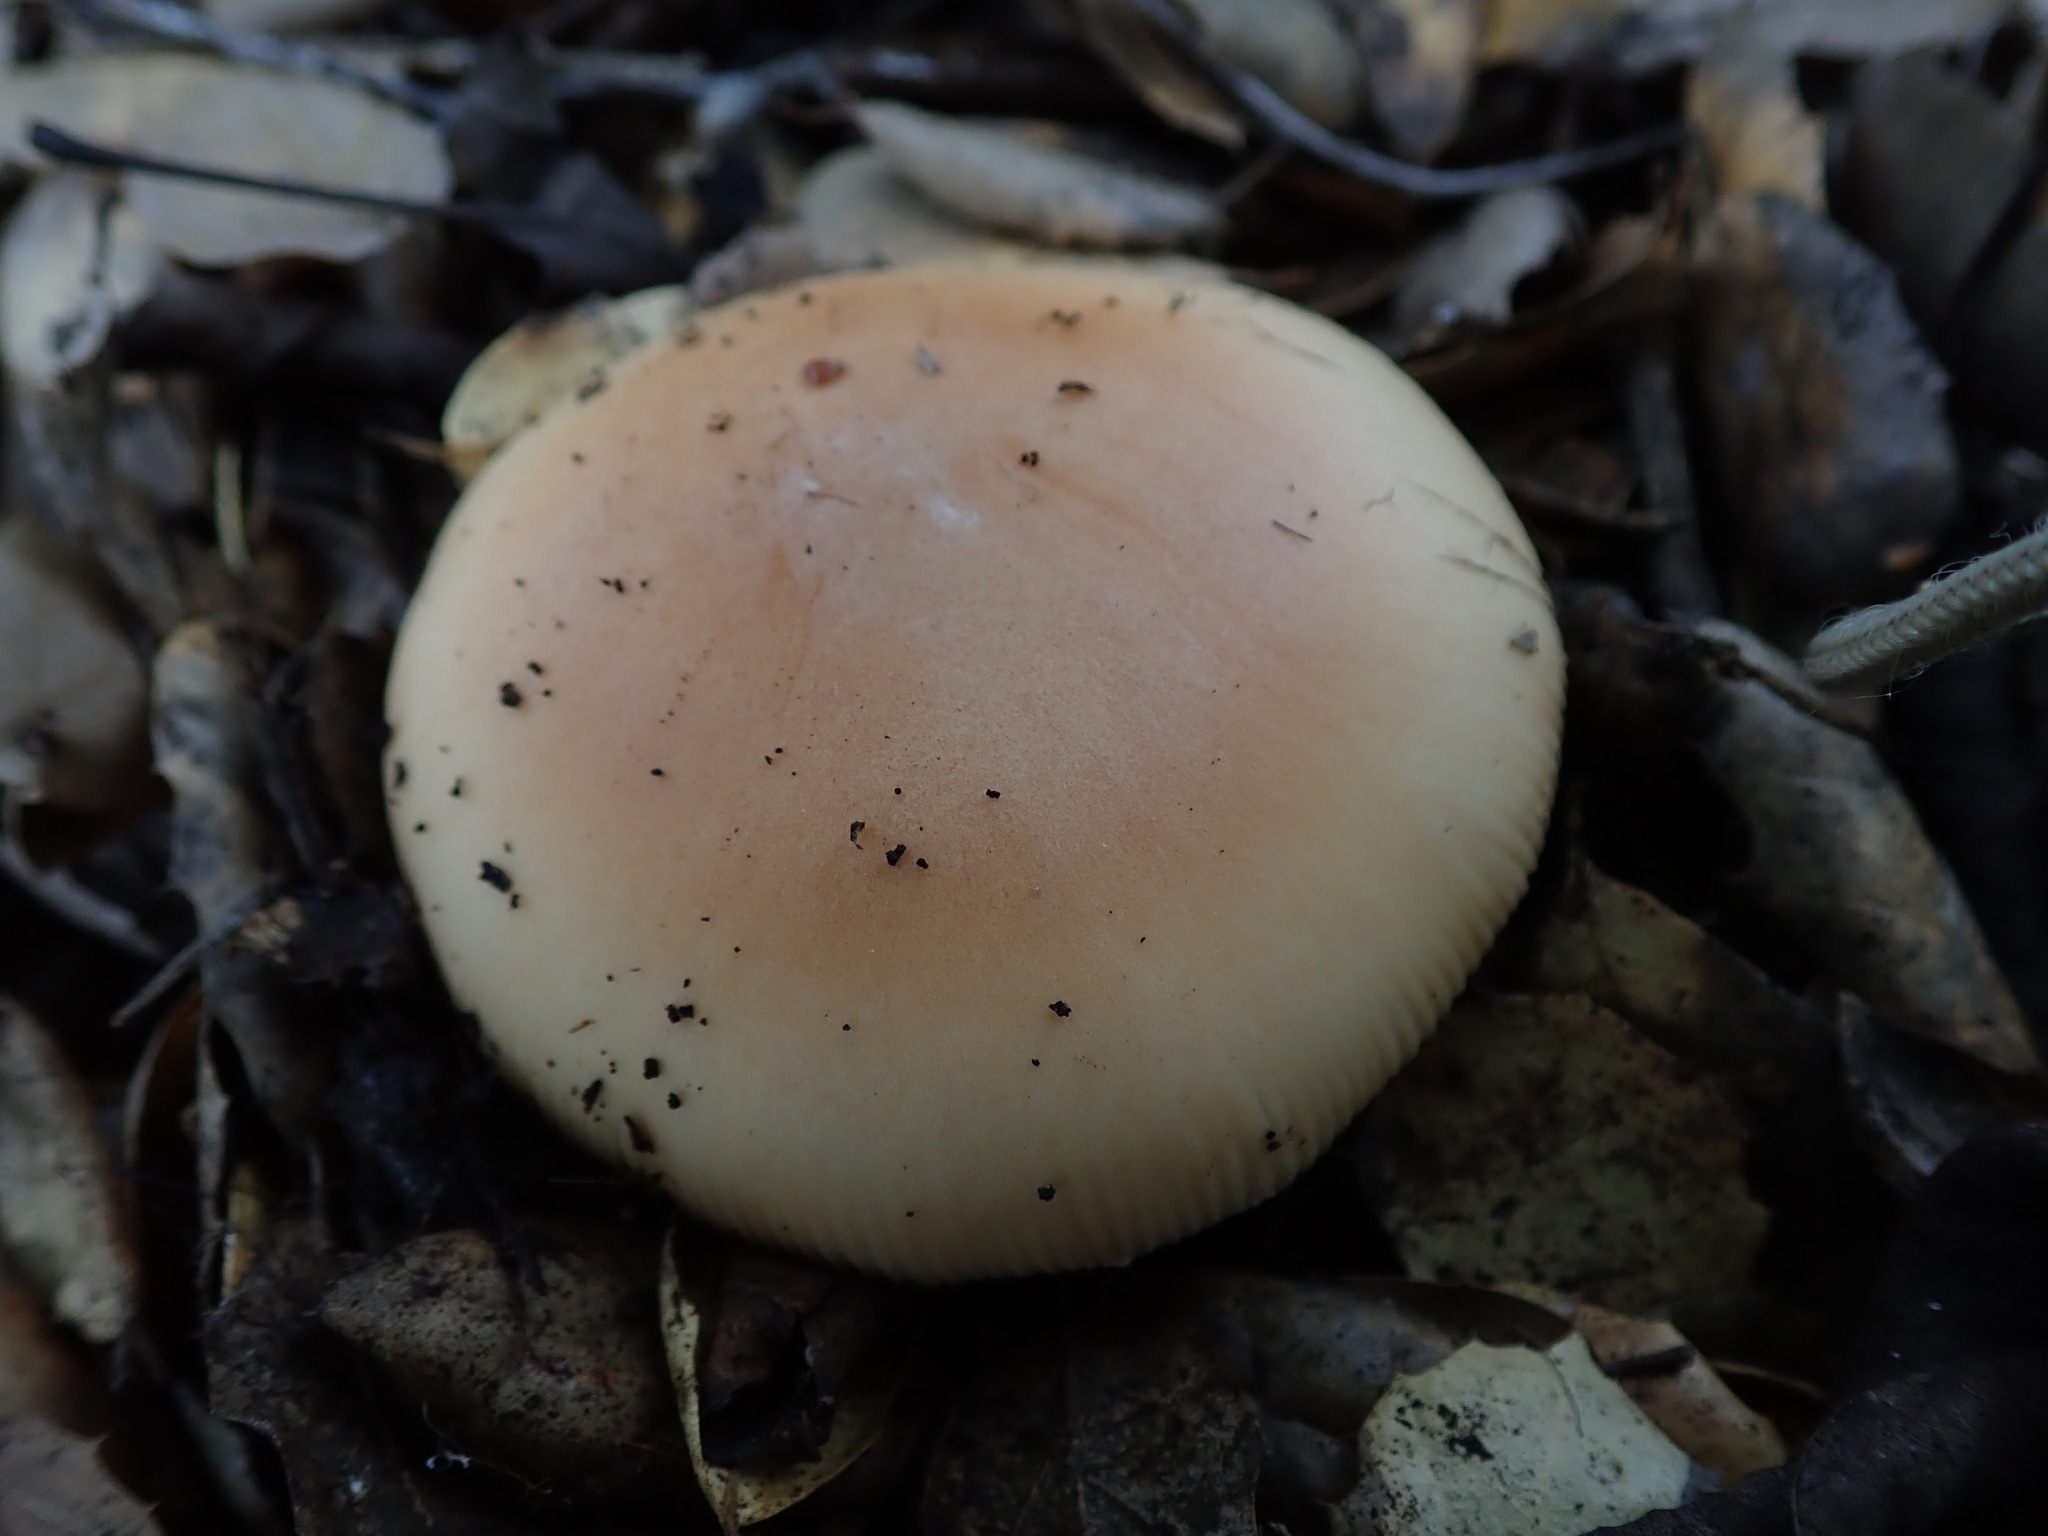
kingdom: Fungi
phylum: Basidiomycota
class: Agaricomycetes
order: Agaricales
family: Amanitaceae
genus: Amanita
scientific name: Amanita velosa
